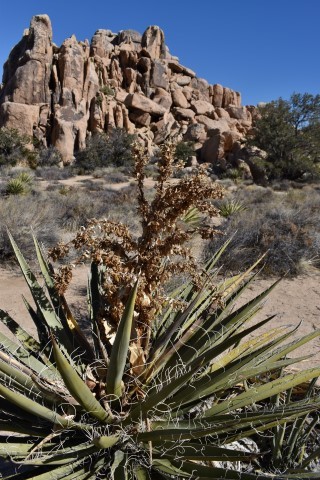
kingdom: Plantae
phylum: Tracheophyta
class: Liliopsida
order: Asparagales
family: Asparagaceae
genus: Yucca
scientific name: Yucca schidigera
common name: Mojave yucca
